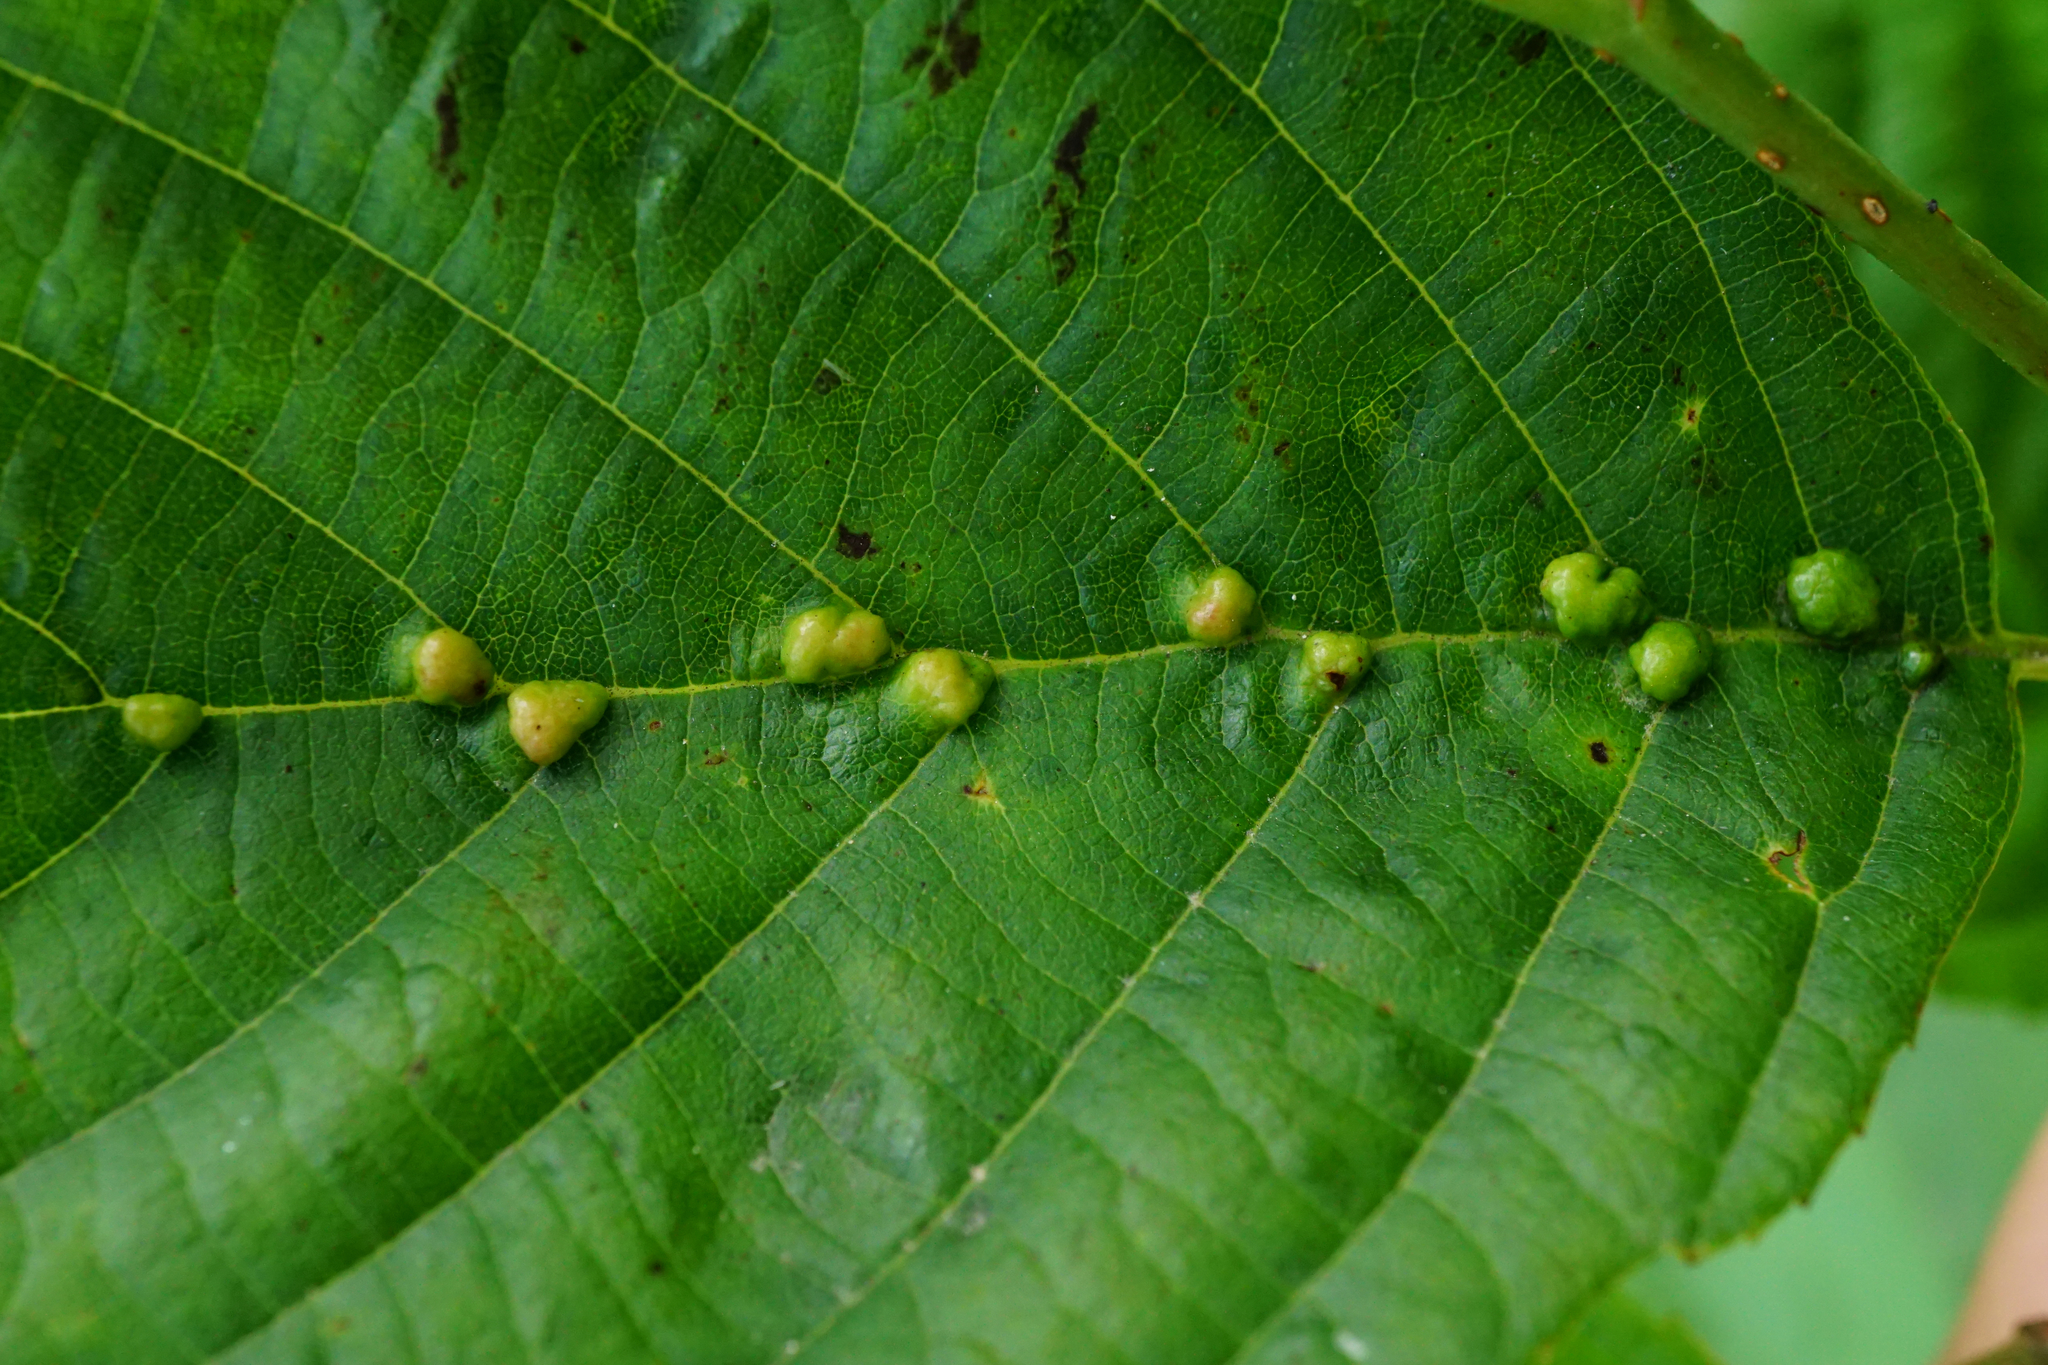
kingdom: Animalia
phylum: Arthropoda
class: Arachnida
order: Trombidiformes
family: Eriophyidae
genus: Eriophyes
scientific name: Eriophyes inangulis
